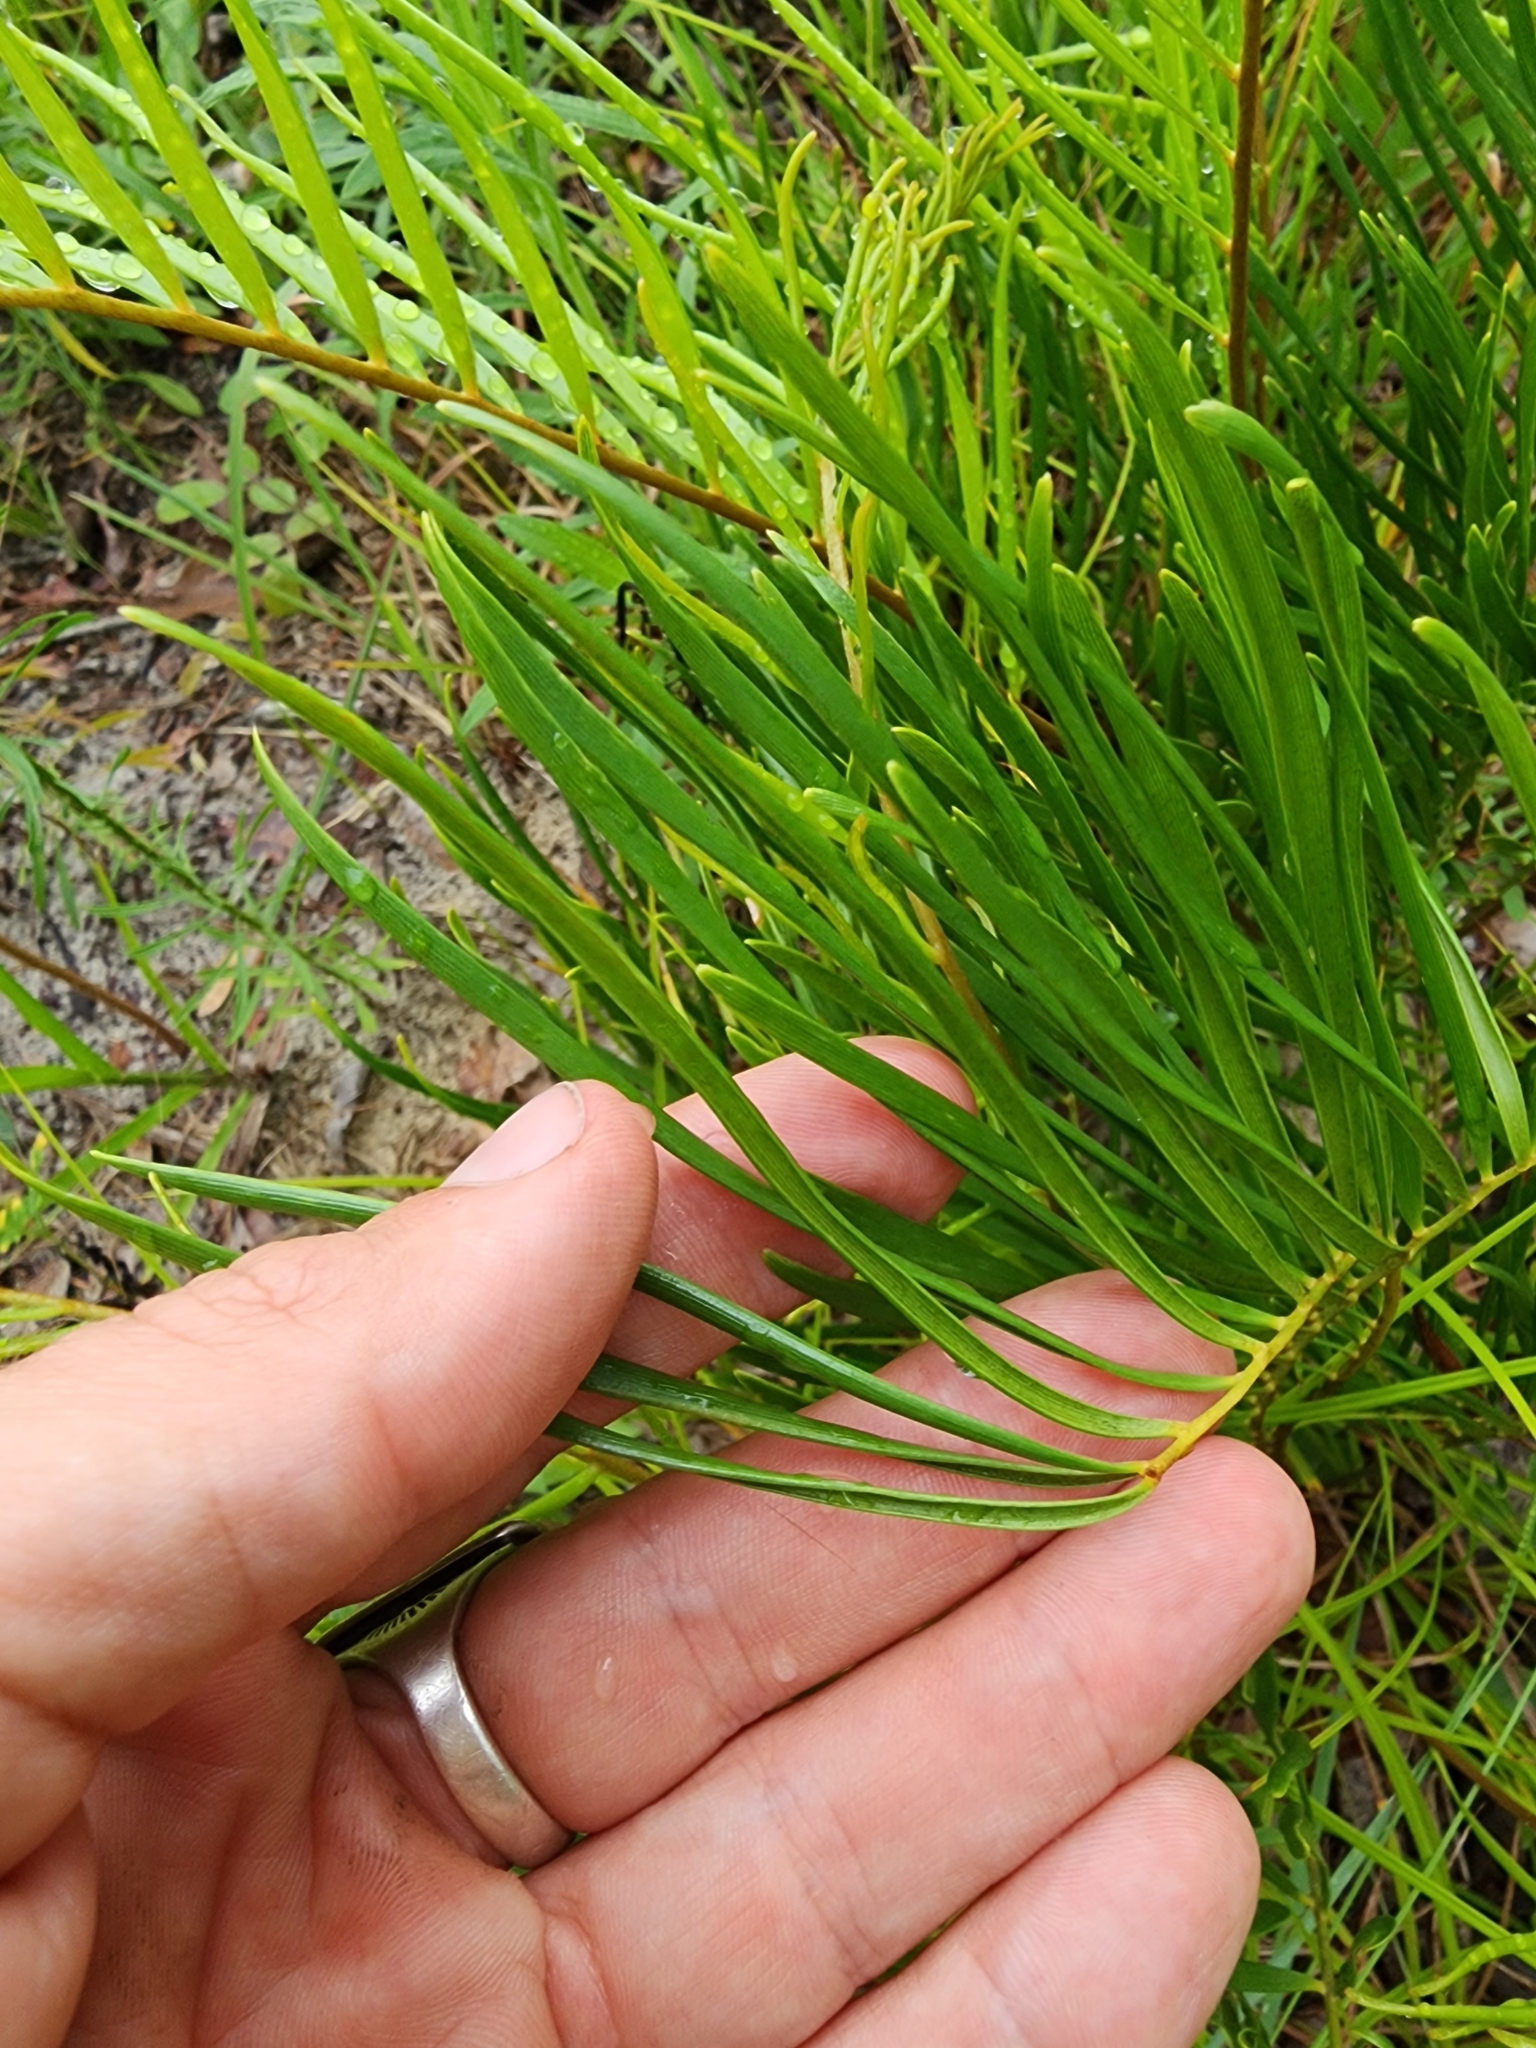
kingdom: Plantae
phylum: Tracheophyta
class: Cycadopsida
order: Cycadales
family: Zamiaceae
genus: Zamia
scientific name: Zamia integrifolia
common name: Florida arrowroot
